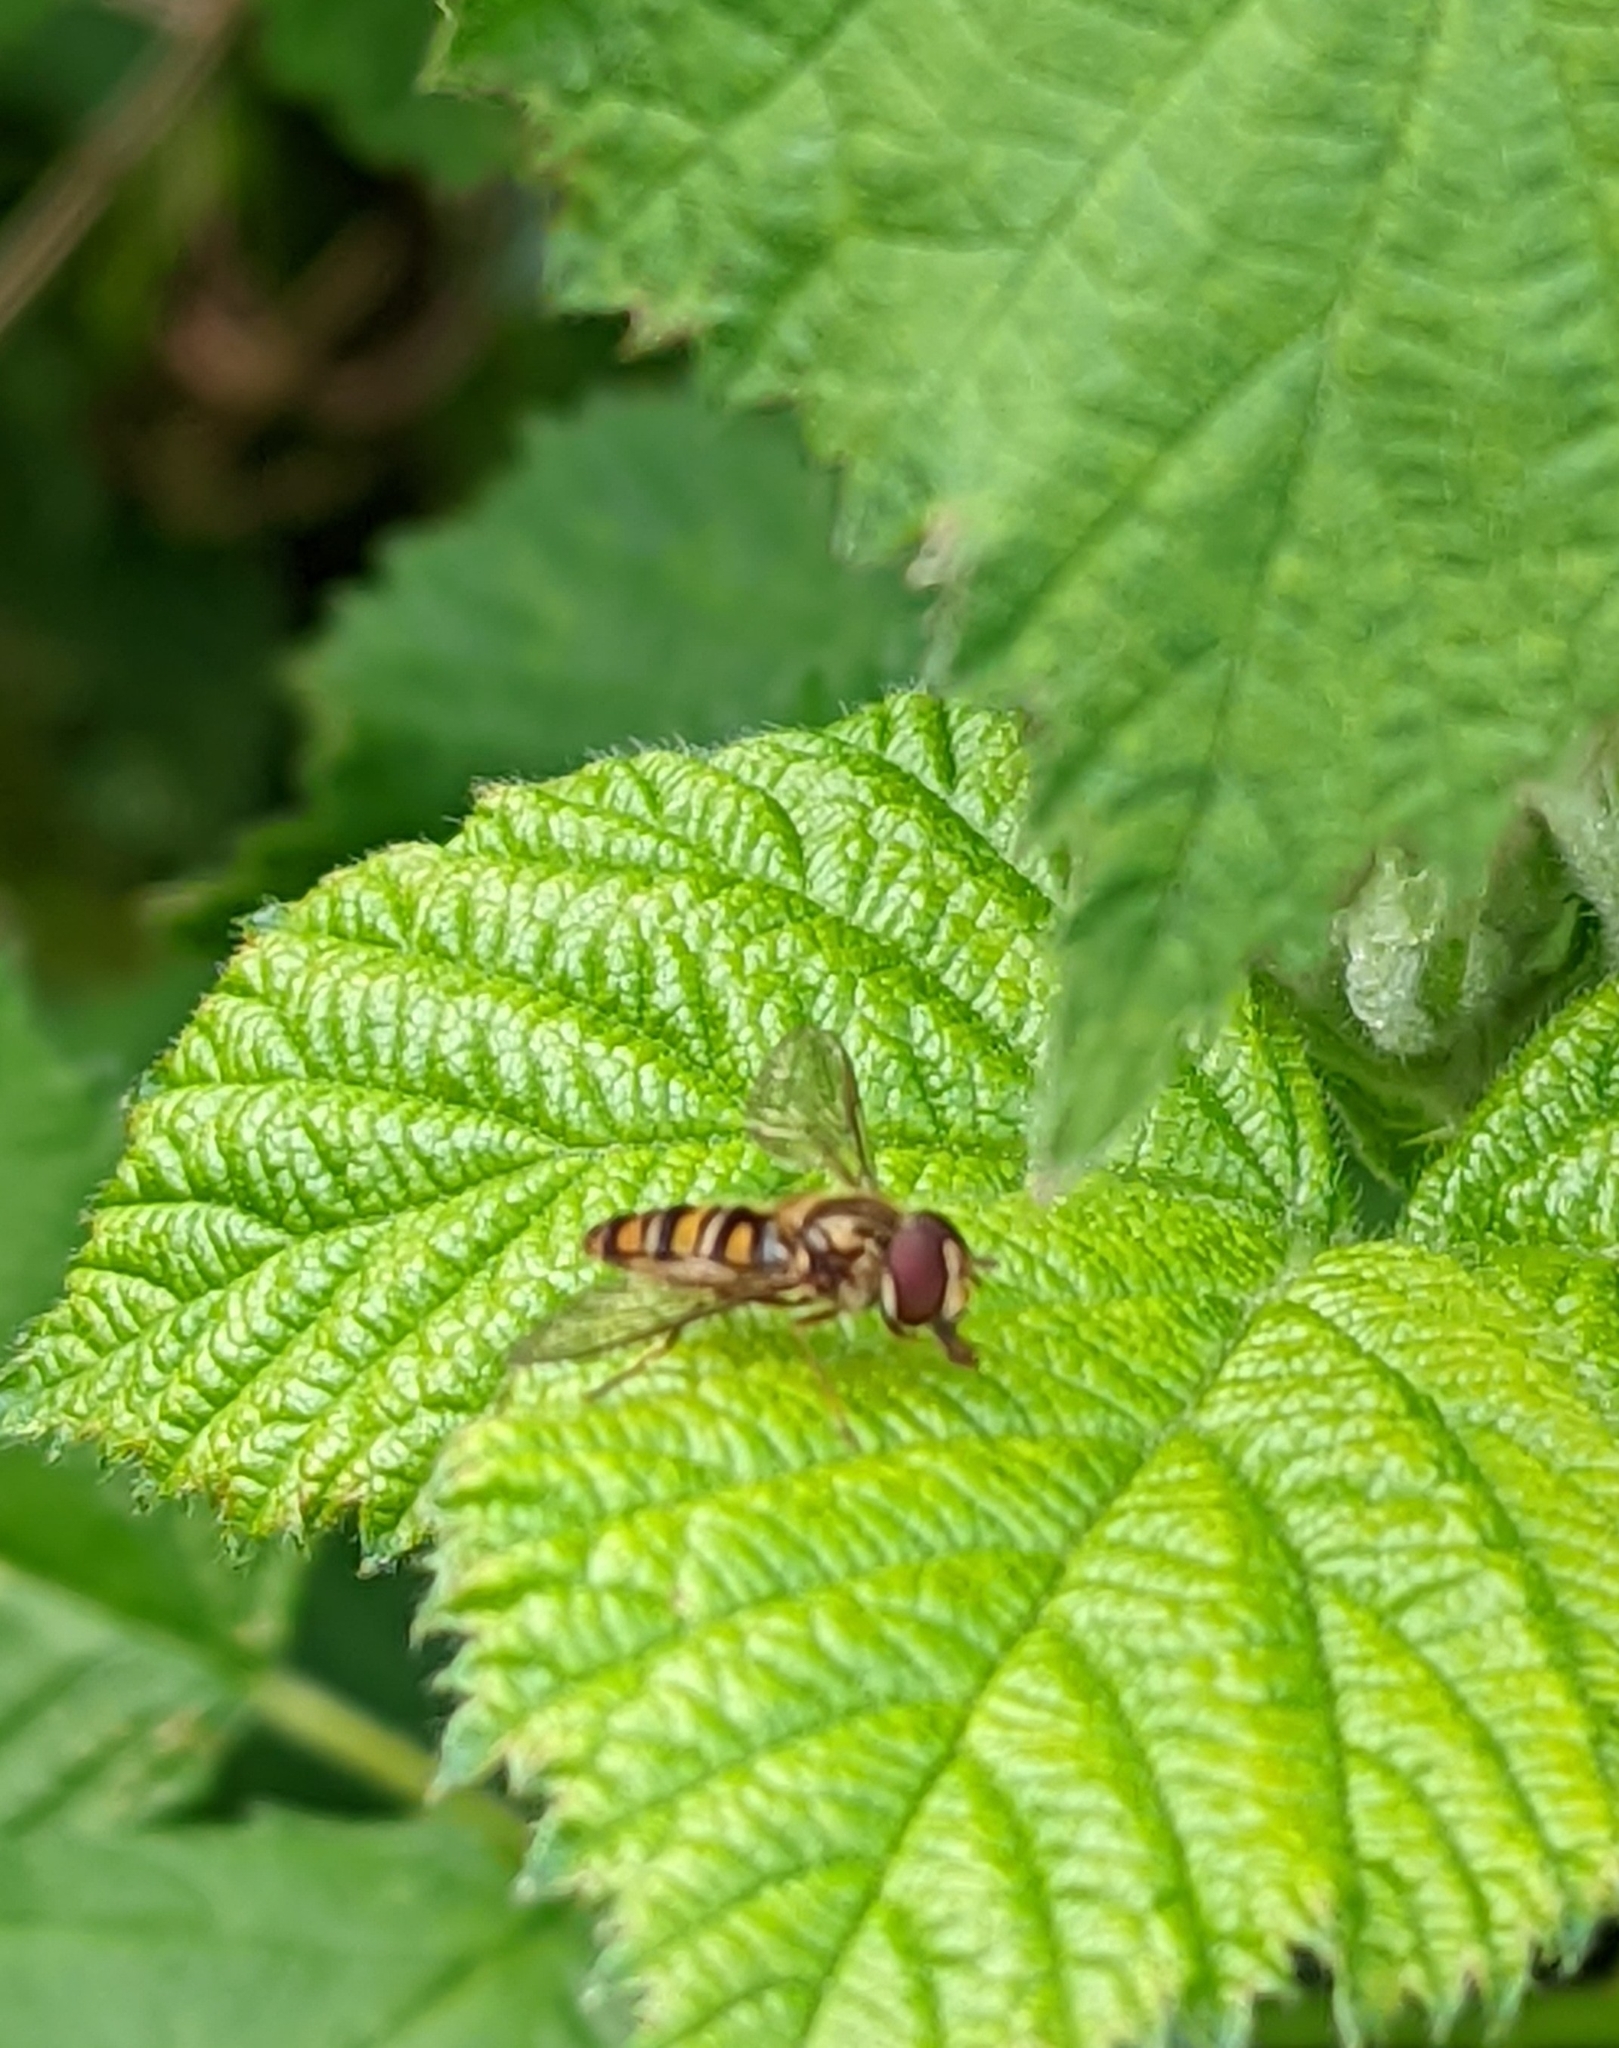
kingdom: Animalia
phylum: Arthropoda
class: Insecta
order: Diptera
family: Syrphidae
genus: Episyrphus
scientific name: Episyrphus balteatus
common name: Marmalade hoverfly
